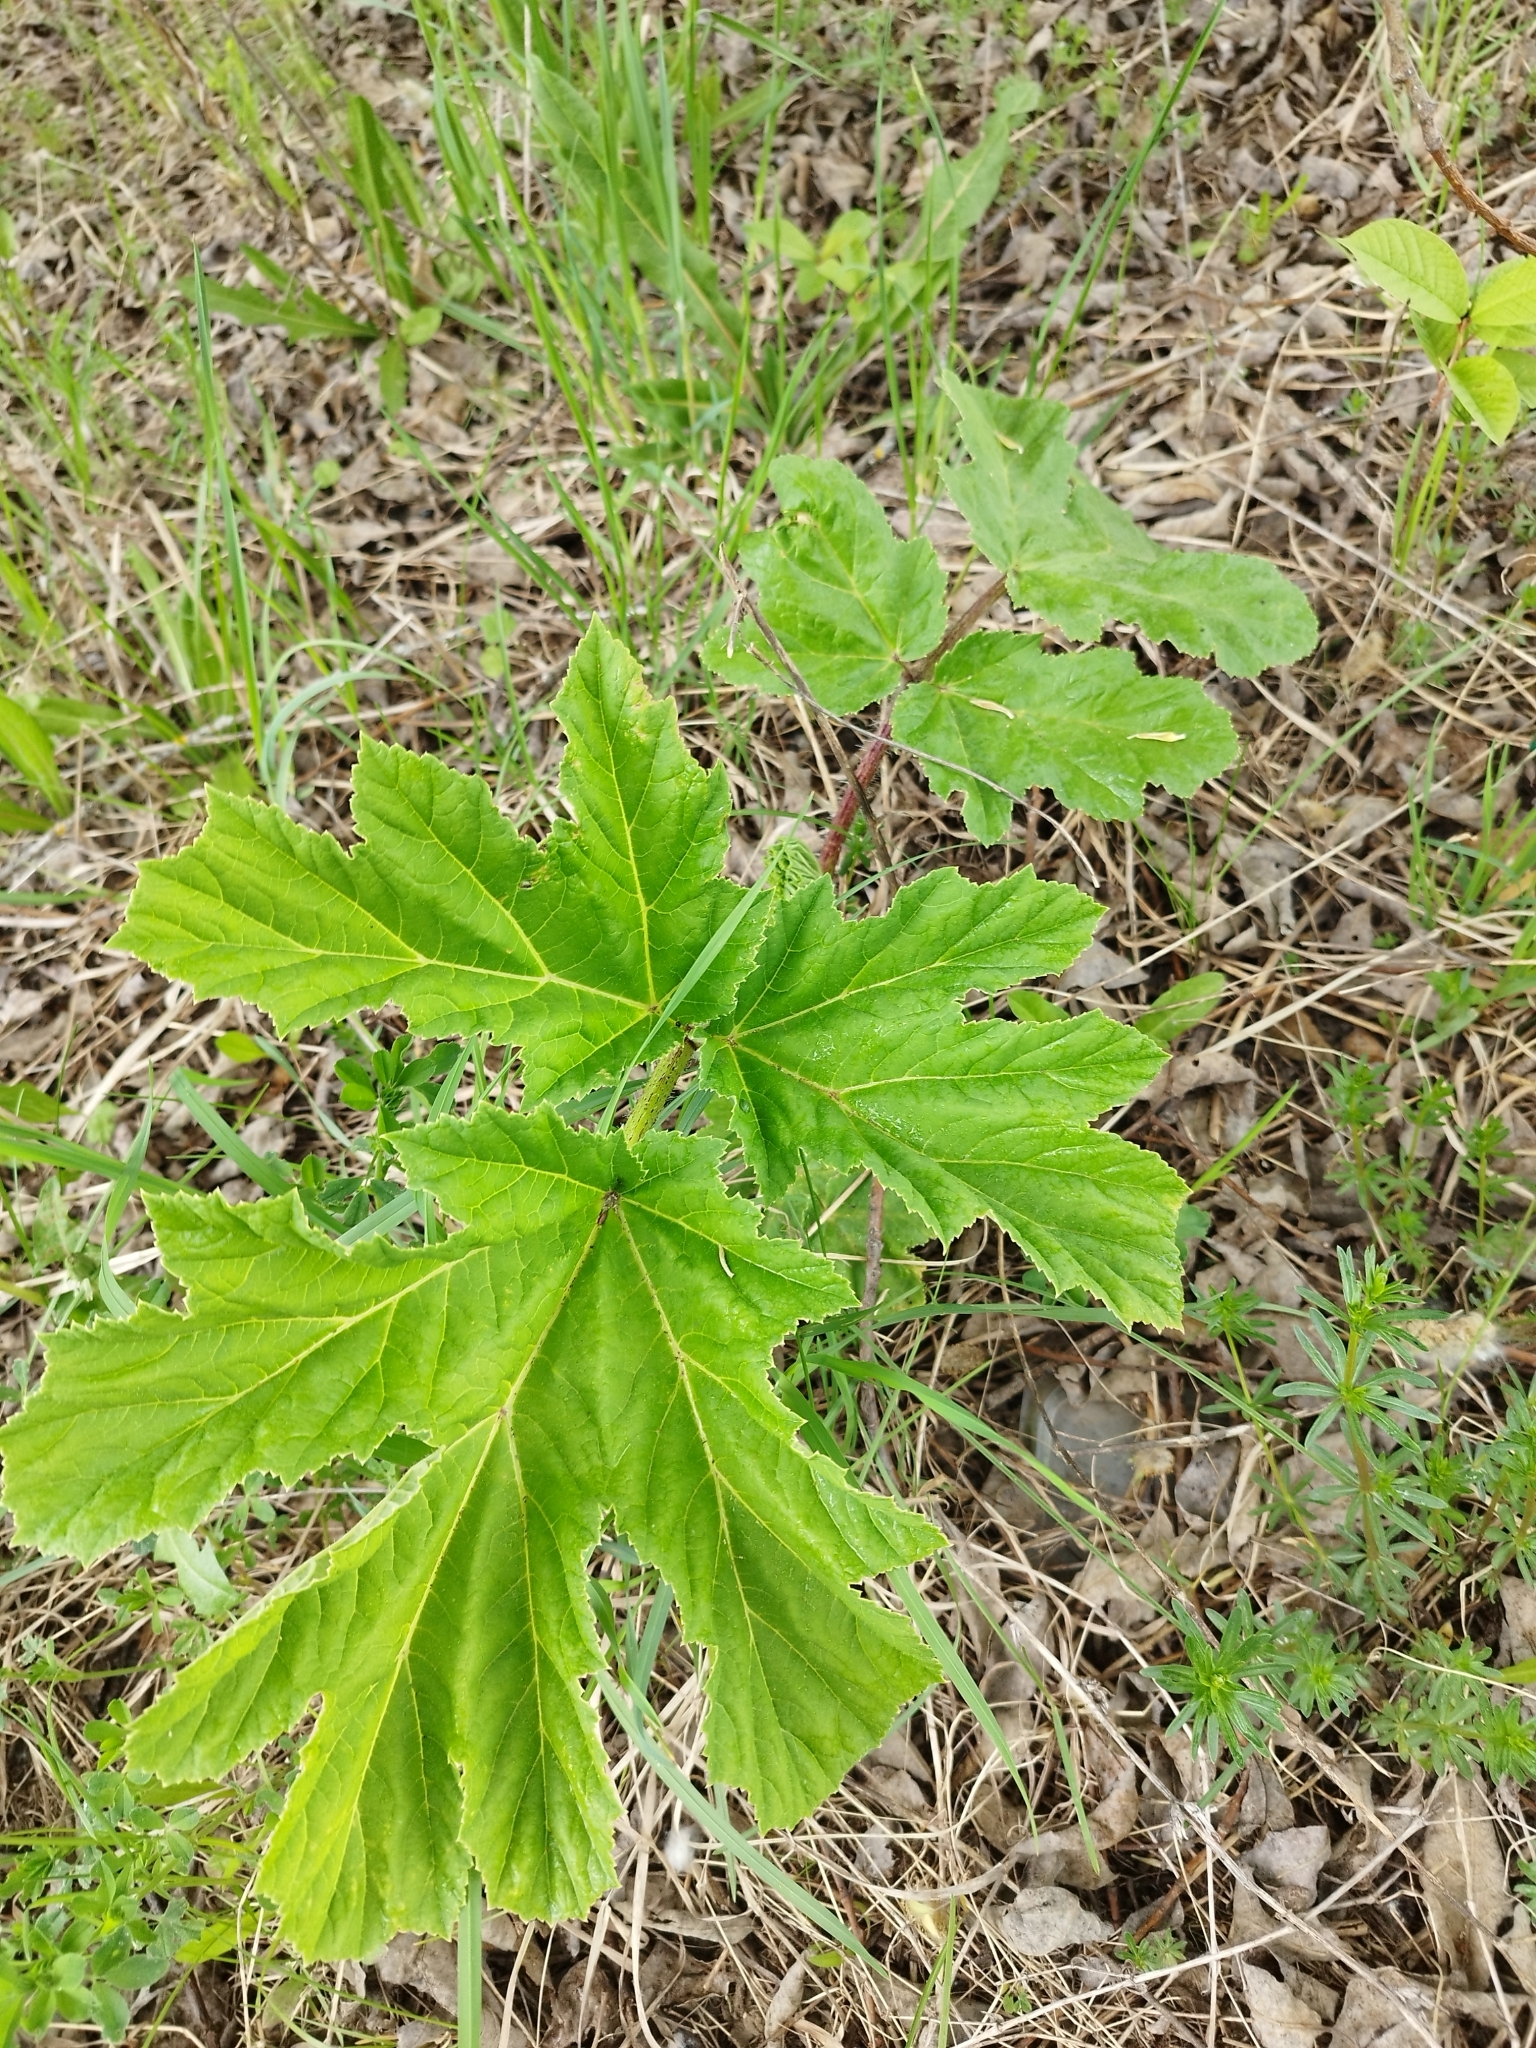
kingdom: Plantae
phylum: Tracheophyta
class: Magnoliopsida
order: Apiales
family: Apiaceae
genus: Heracleum
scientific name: Heracleum sosnowskyi
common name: Sosnowsky's hogweed
